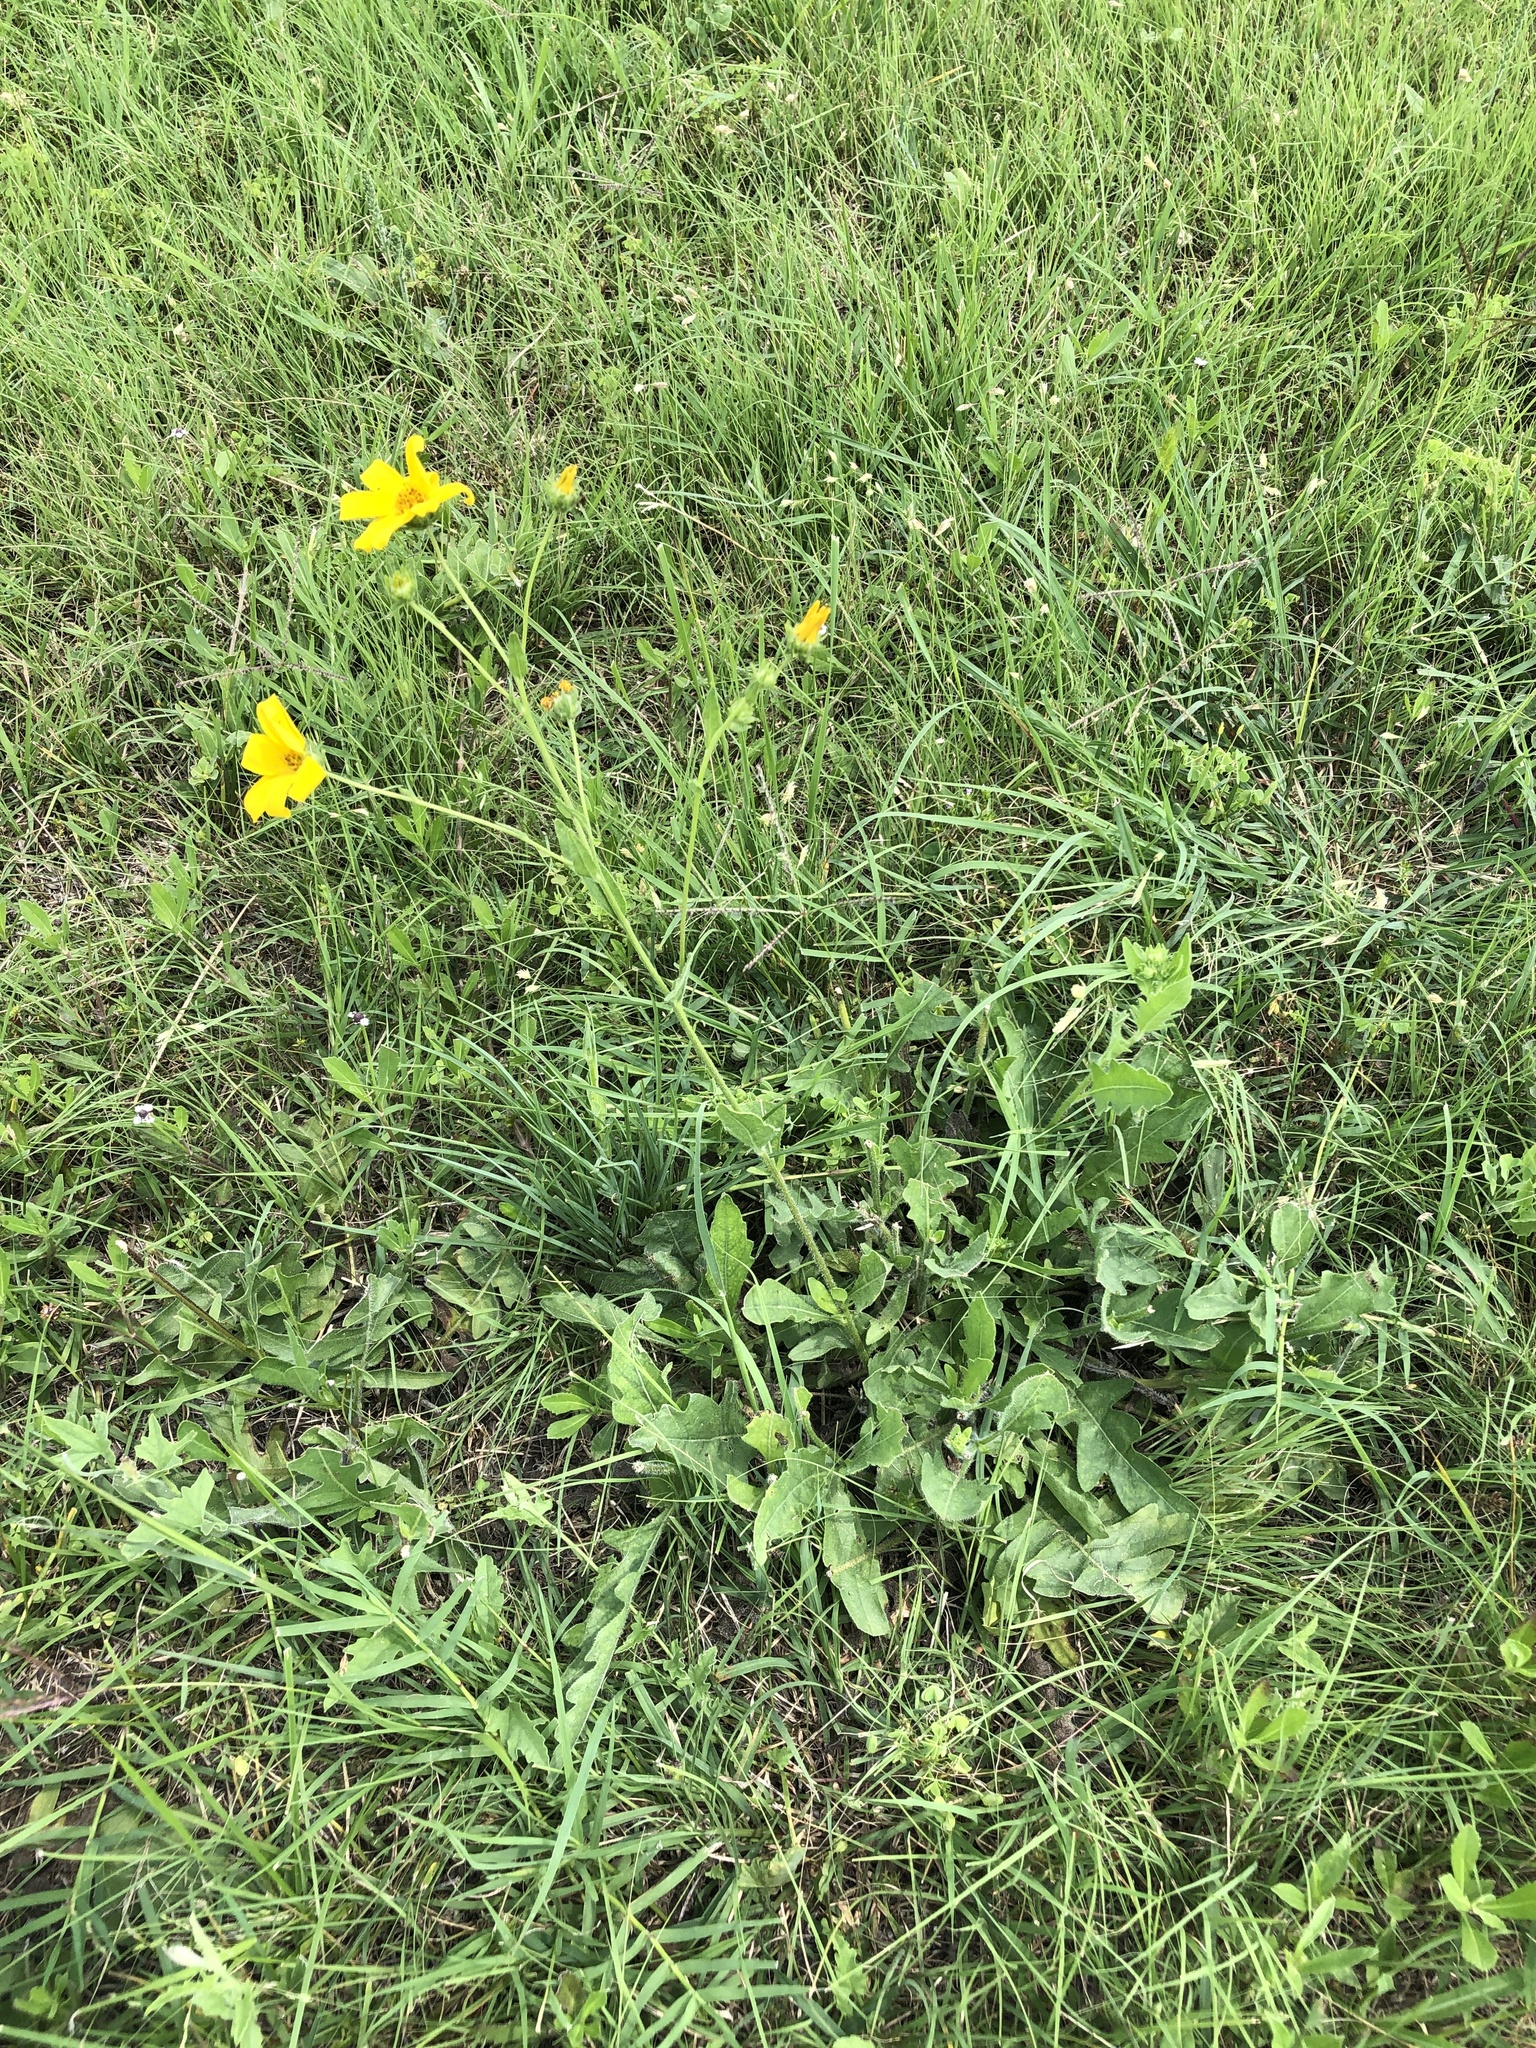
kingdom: Plantae
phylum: Tracheophyta
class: Magnoliopsida
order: Asterales
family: Asteraceae
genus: Engelmannia
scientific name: Engelmannia peristenia
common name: Engelmann's daisy
